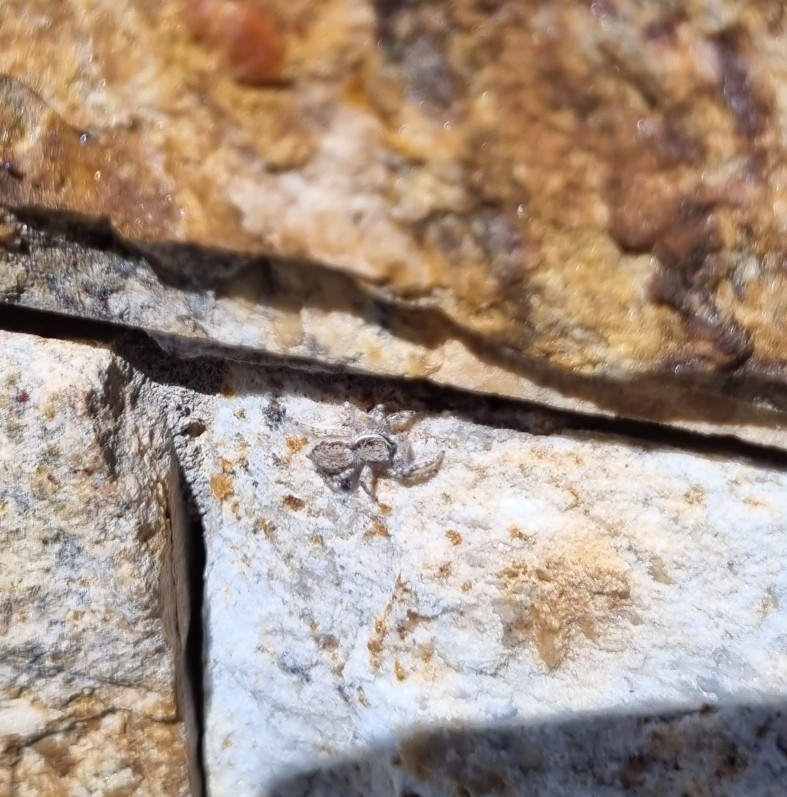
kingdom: Animalia
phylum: Arthropoda
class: Arachnida
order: Araneae
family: Salticidae
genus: Menemerus
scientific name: Menemerus bivittatus
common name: Gray wall jumper
